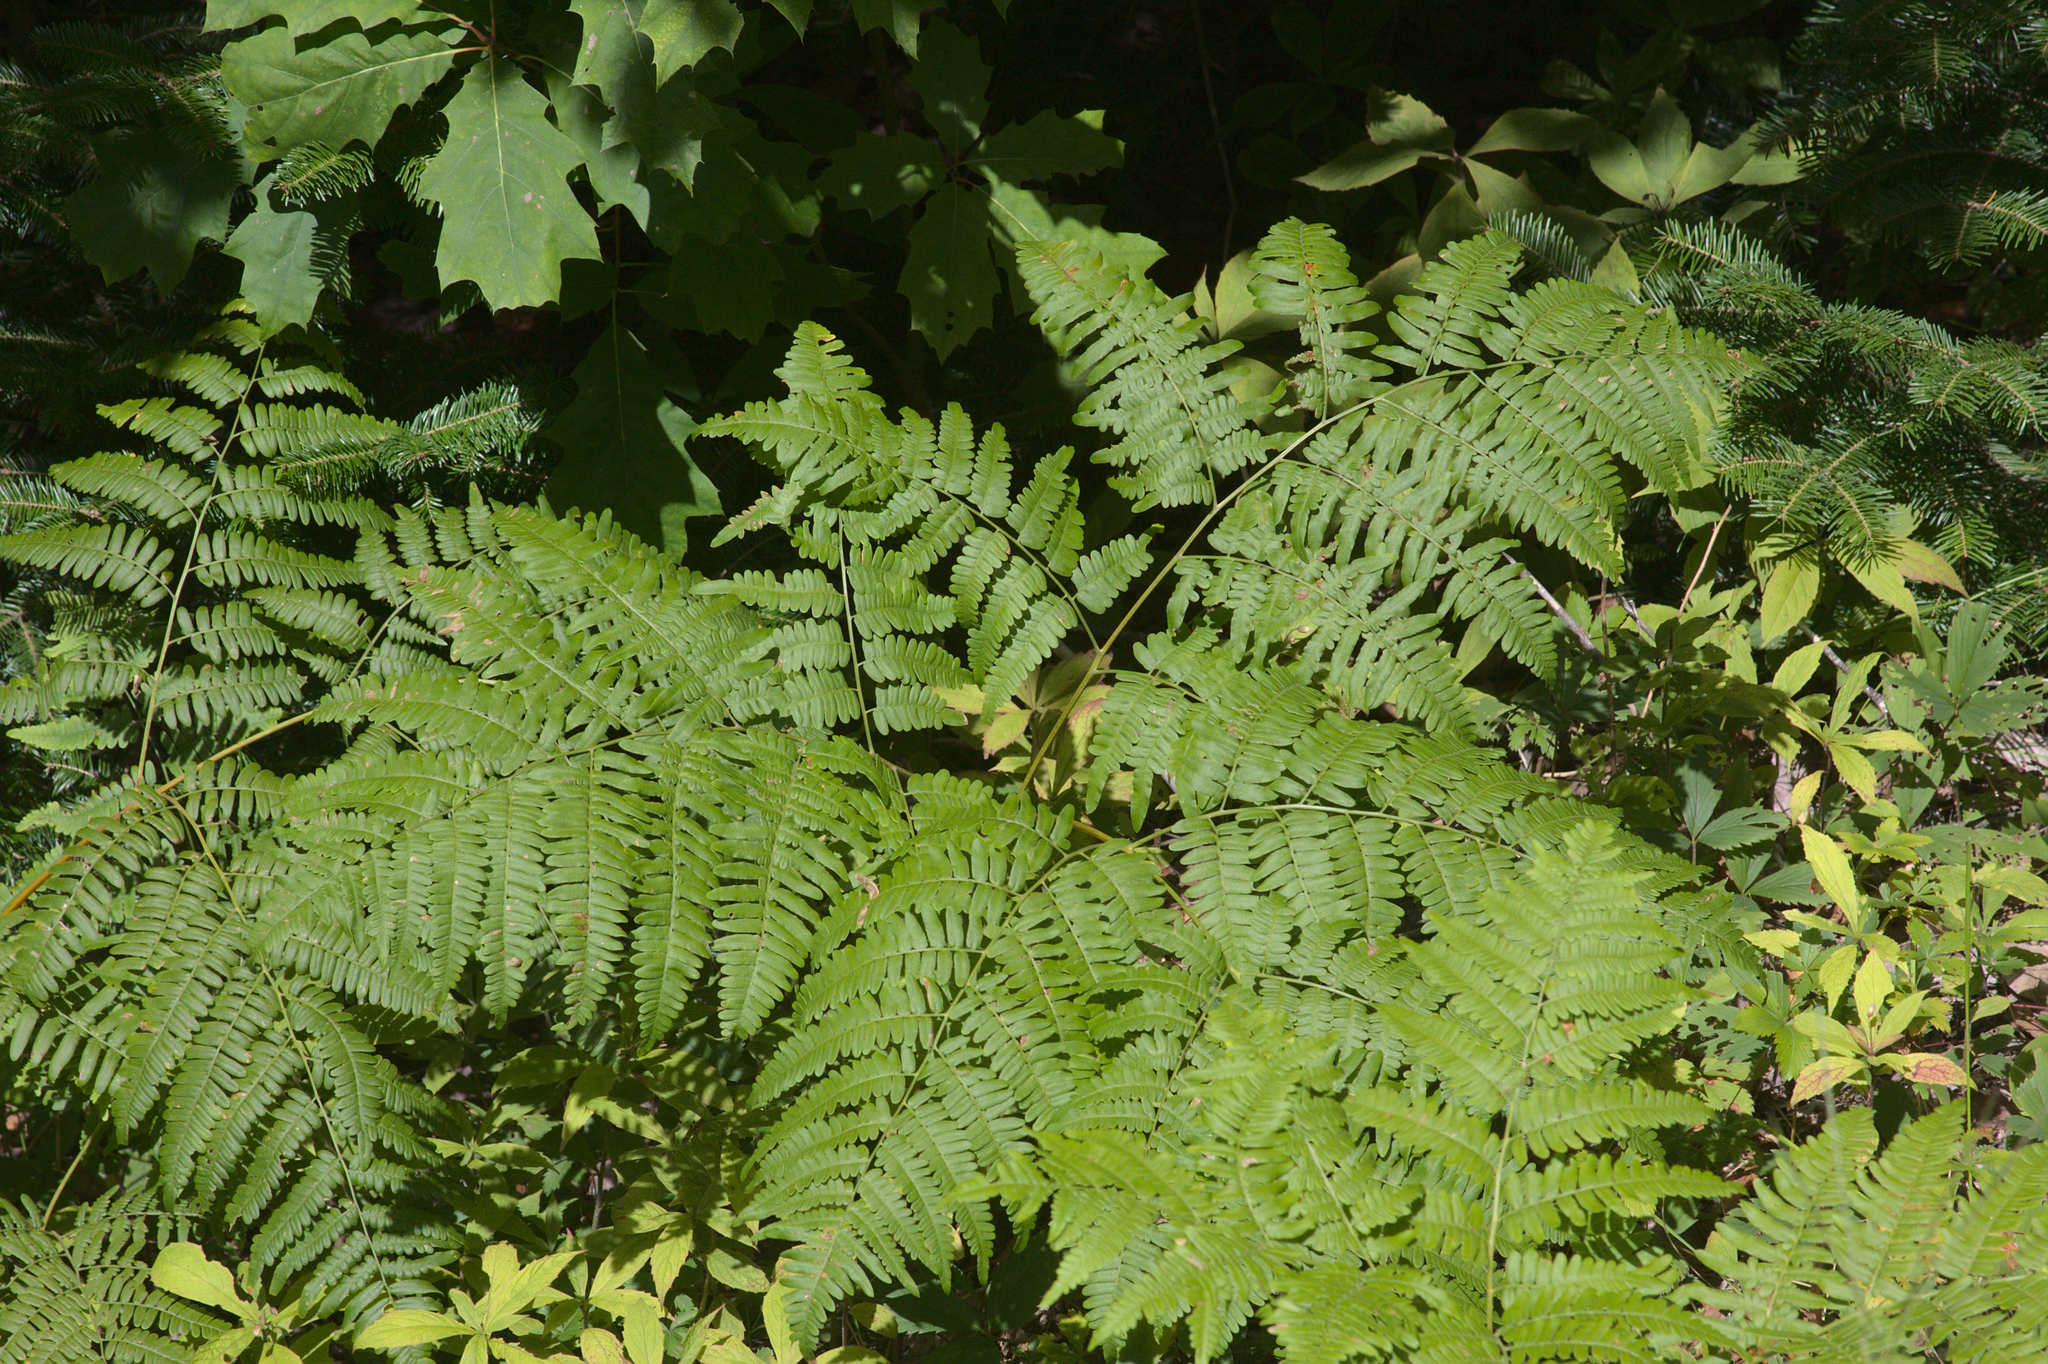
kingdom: Plantae
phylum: Tracheophyta
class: Polypodiopsida
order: Polypodiales
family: Dennstaedtiaceae
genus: Pteridium
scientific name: Pteridium aquilinum
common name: Bracken
